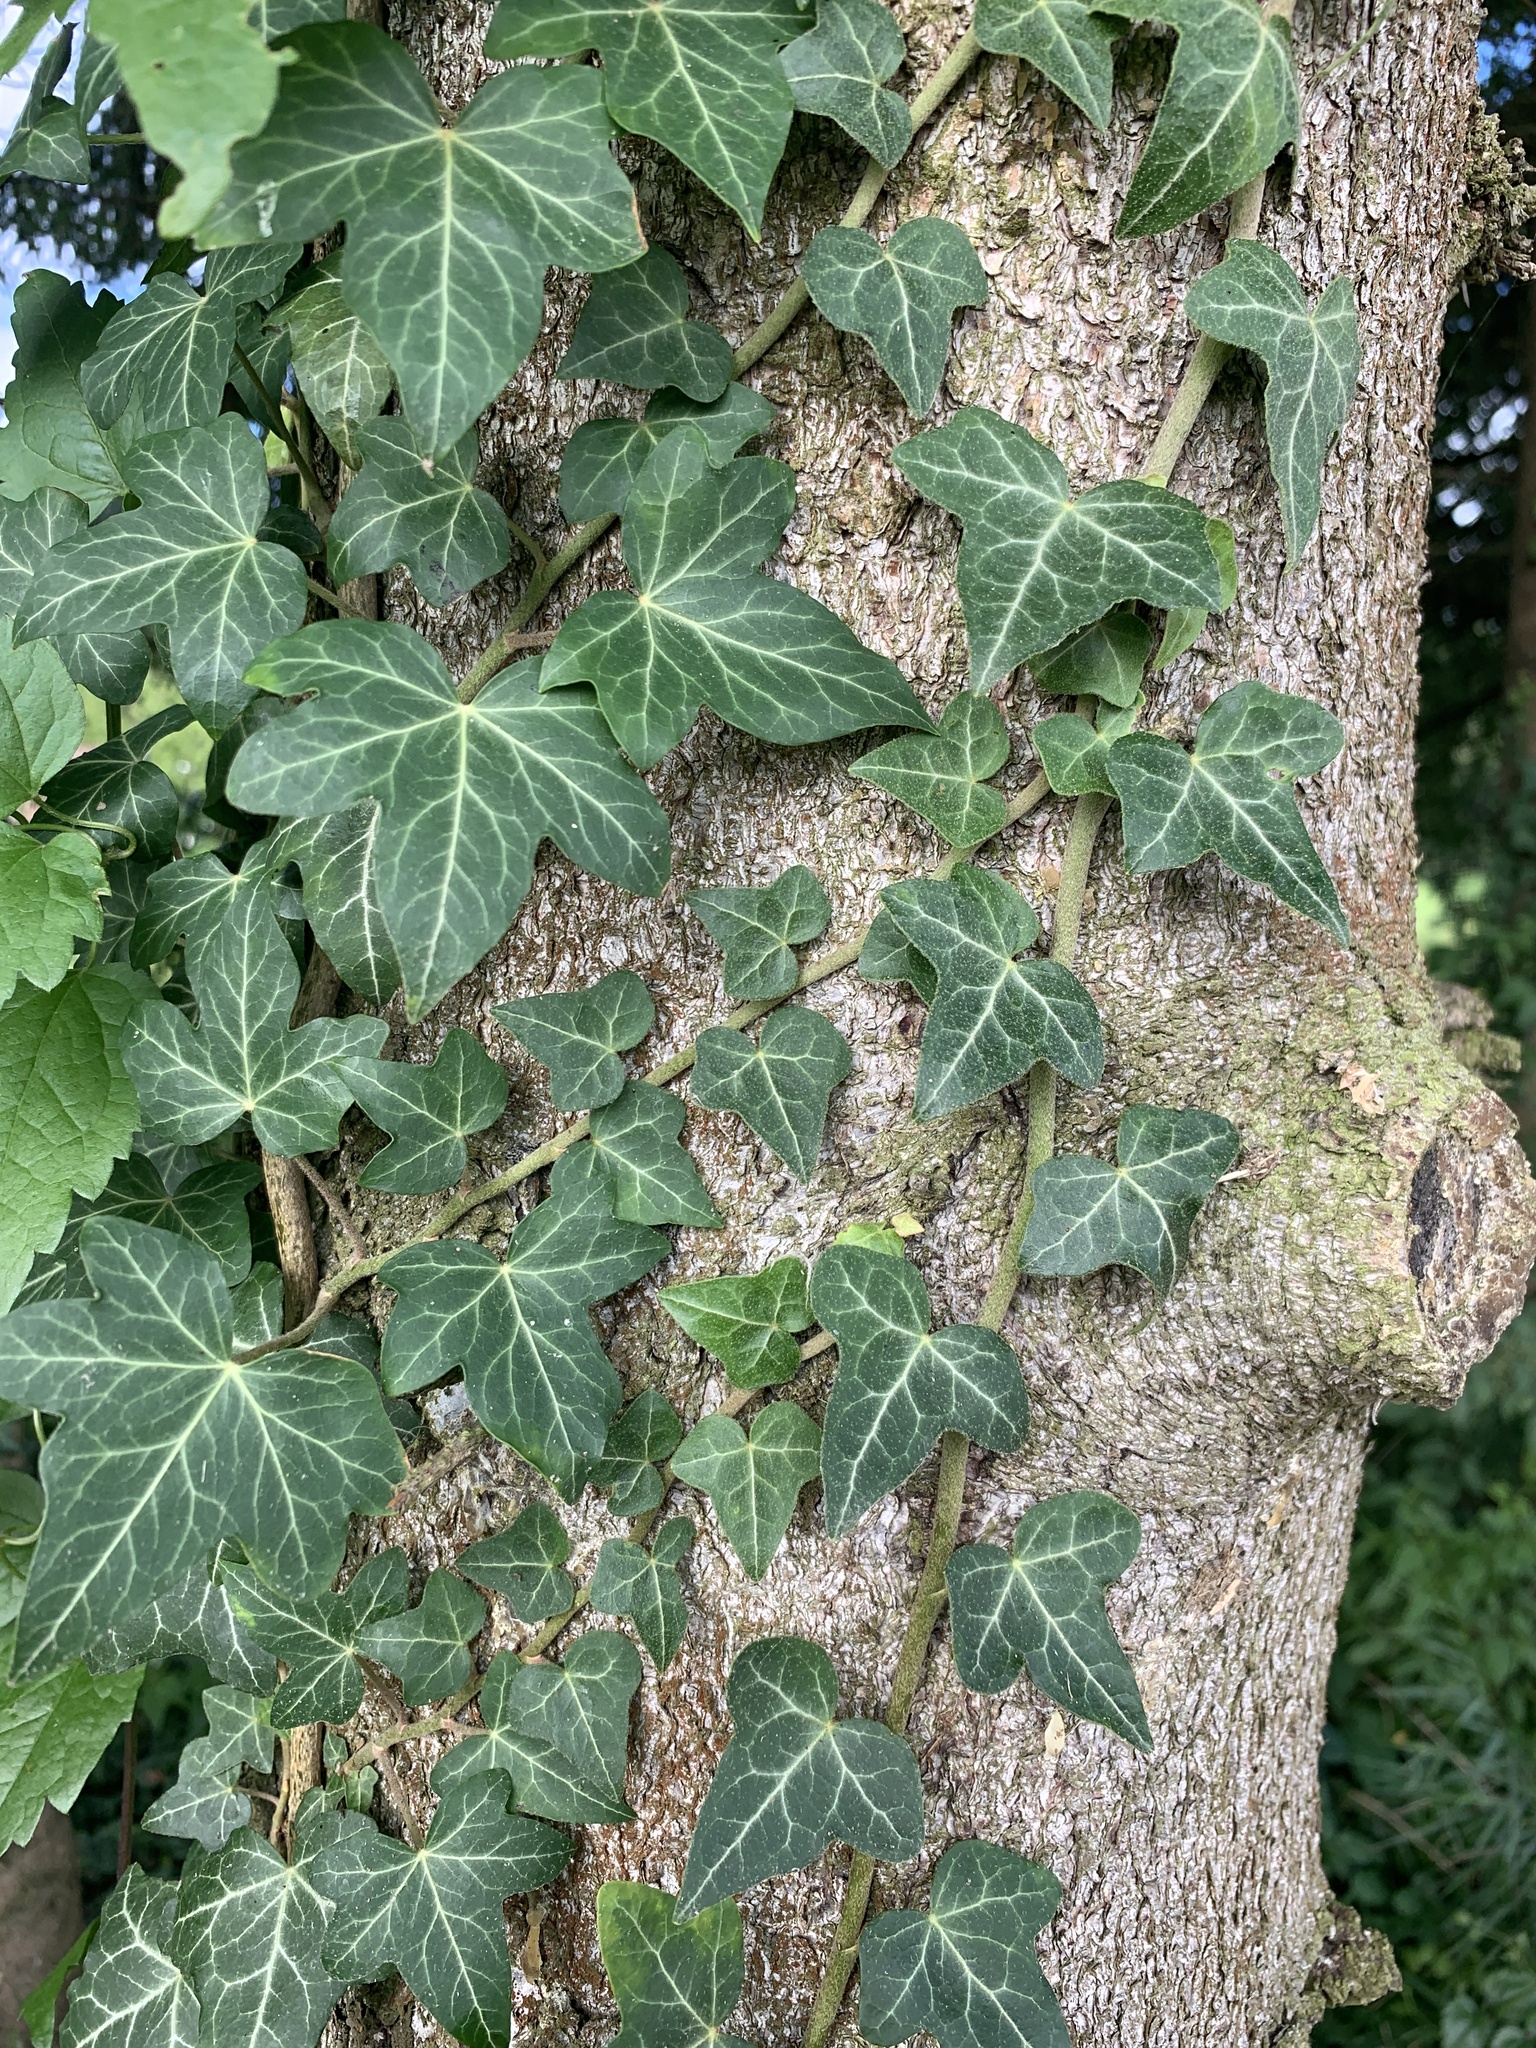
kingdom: Plantae
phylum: Tracheophyta
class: Magnoliopsida
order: Apiales
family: Araliaceae
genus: Hedera
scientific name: Hedera helix
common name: Ivy
